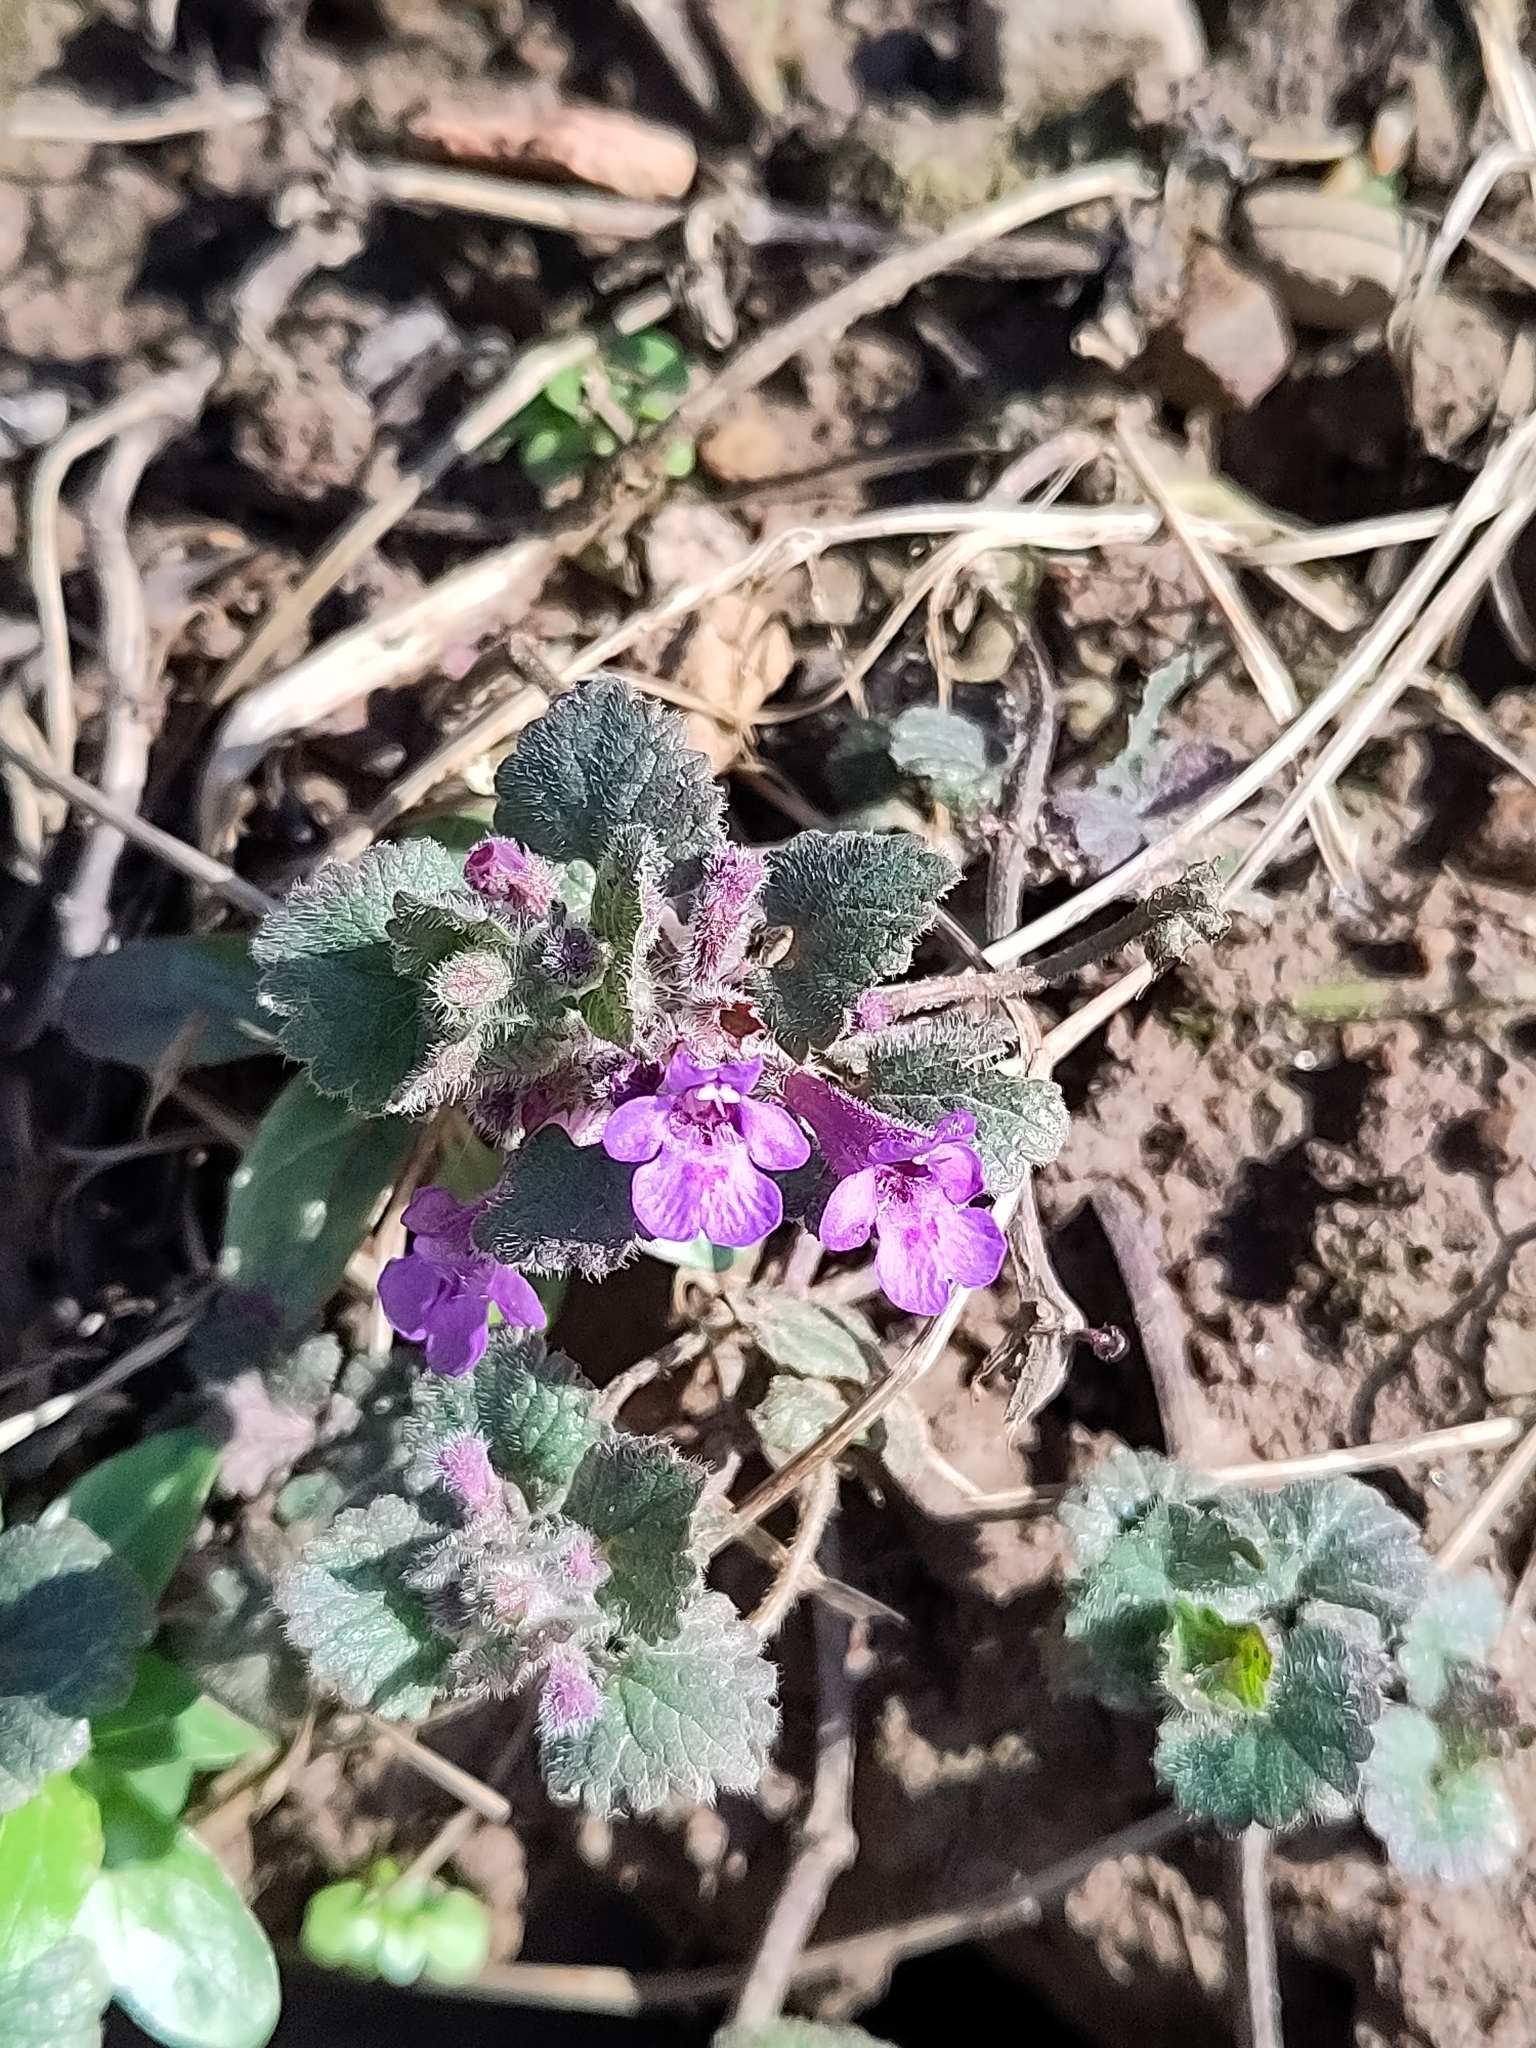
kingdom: Plantae
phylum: Tracheophyta
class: Magnoliopsida
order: Lamiales
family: Lamiaceae
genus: Glechoma
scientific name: Glechoma hederacea
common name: Ground ivy
